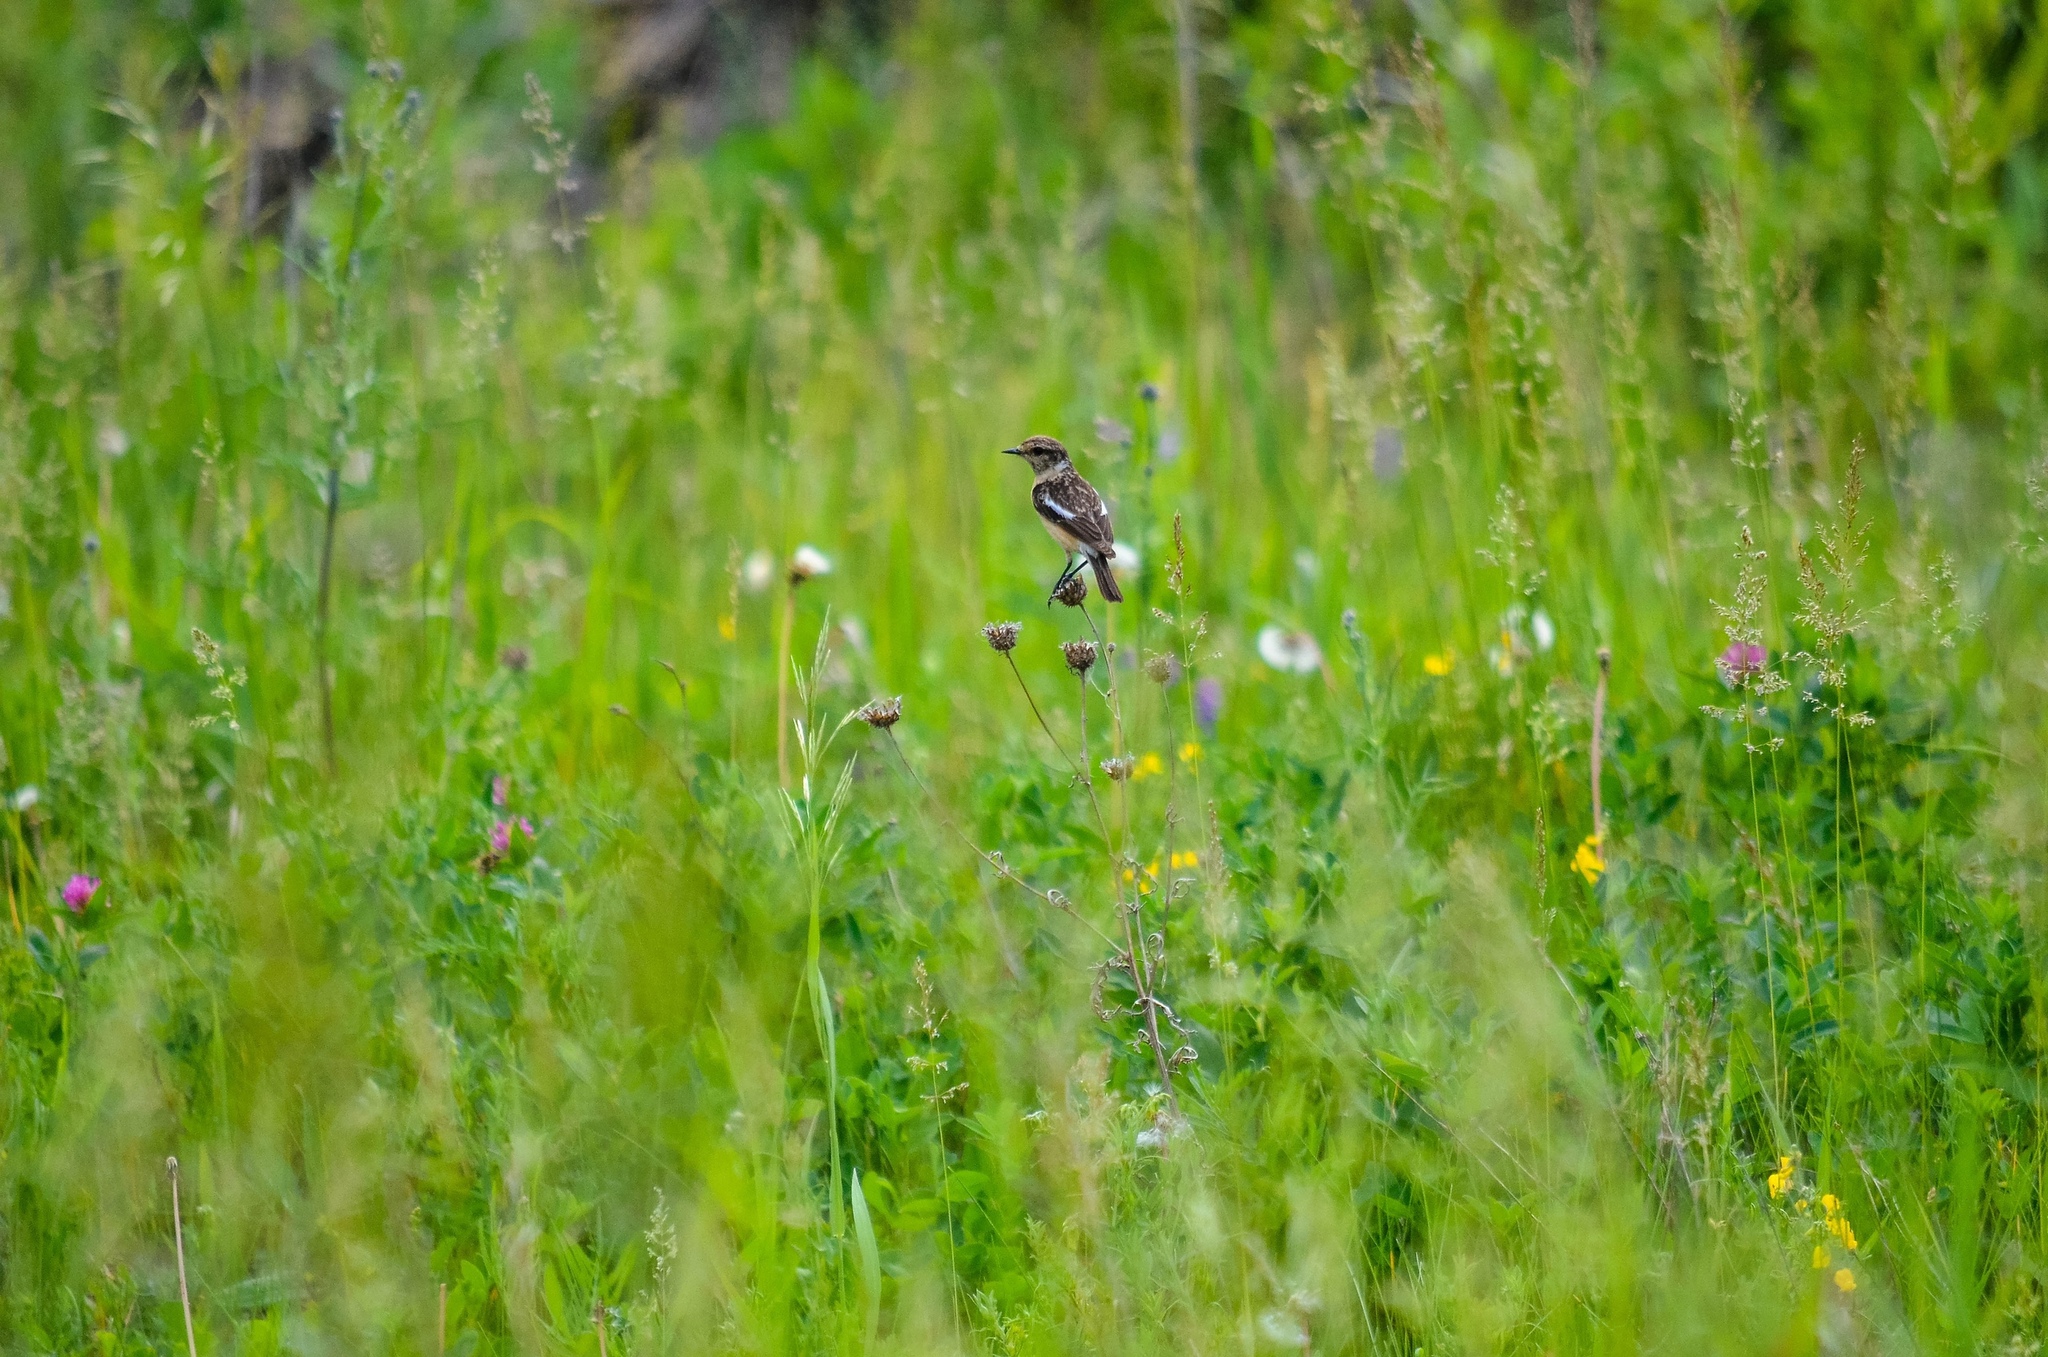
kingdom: Animalia
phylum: Chordata
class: Aves
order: Passeriformes
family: Muscicapidae
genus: Saxicola
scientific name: Saxicola maurus
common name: Siberian stonechat
